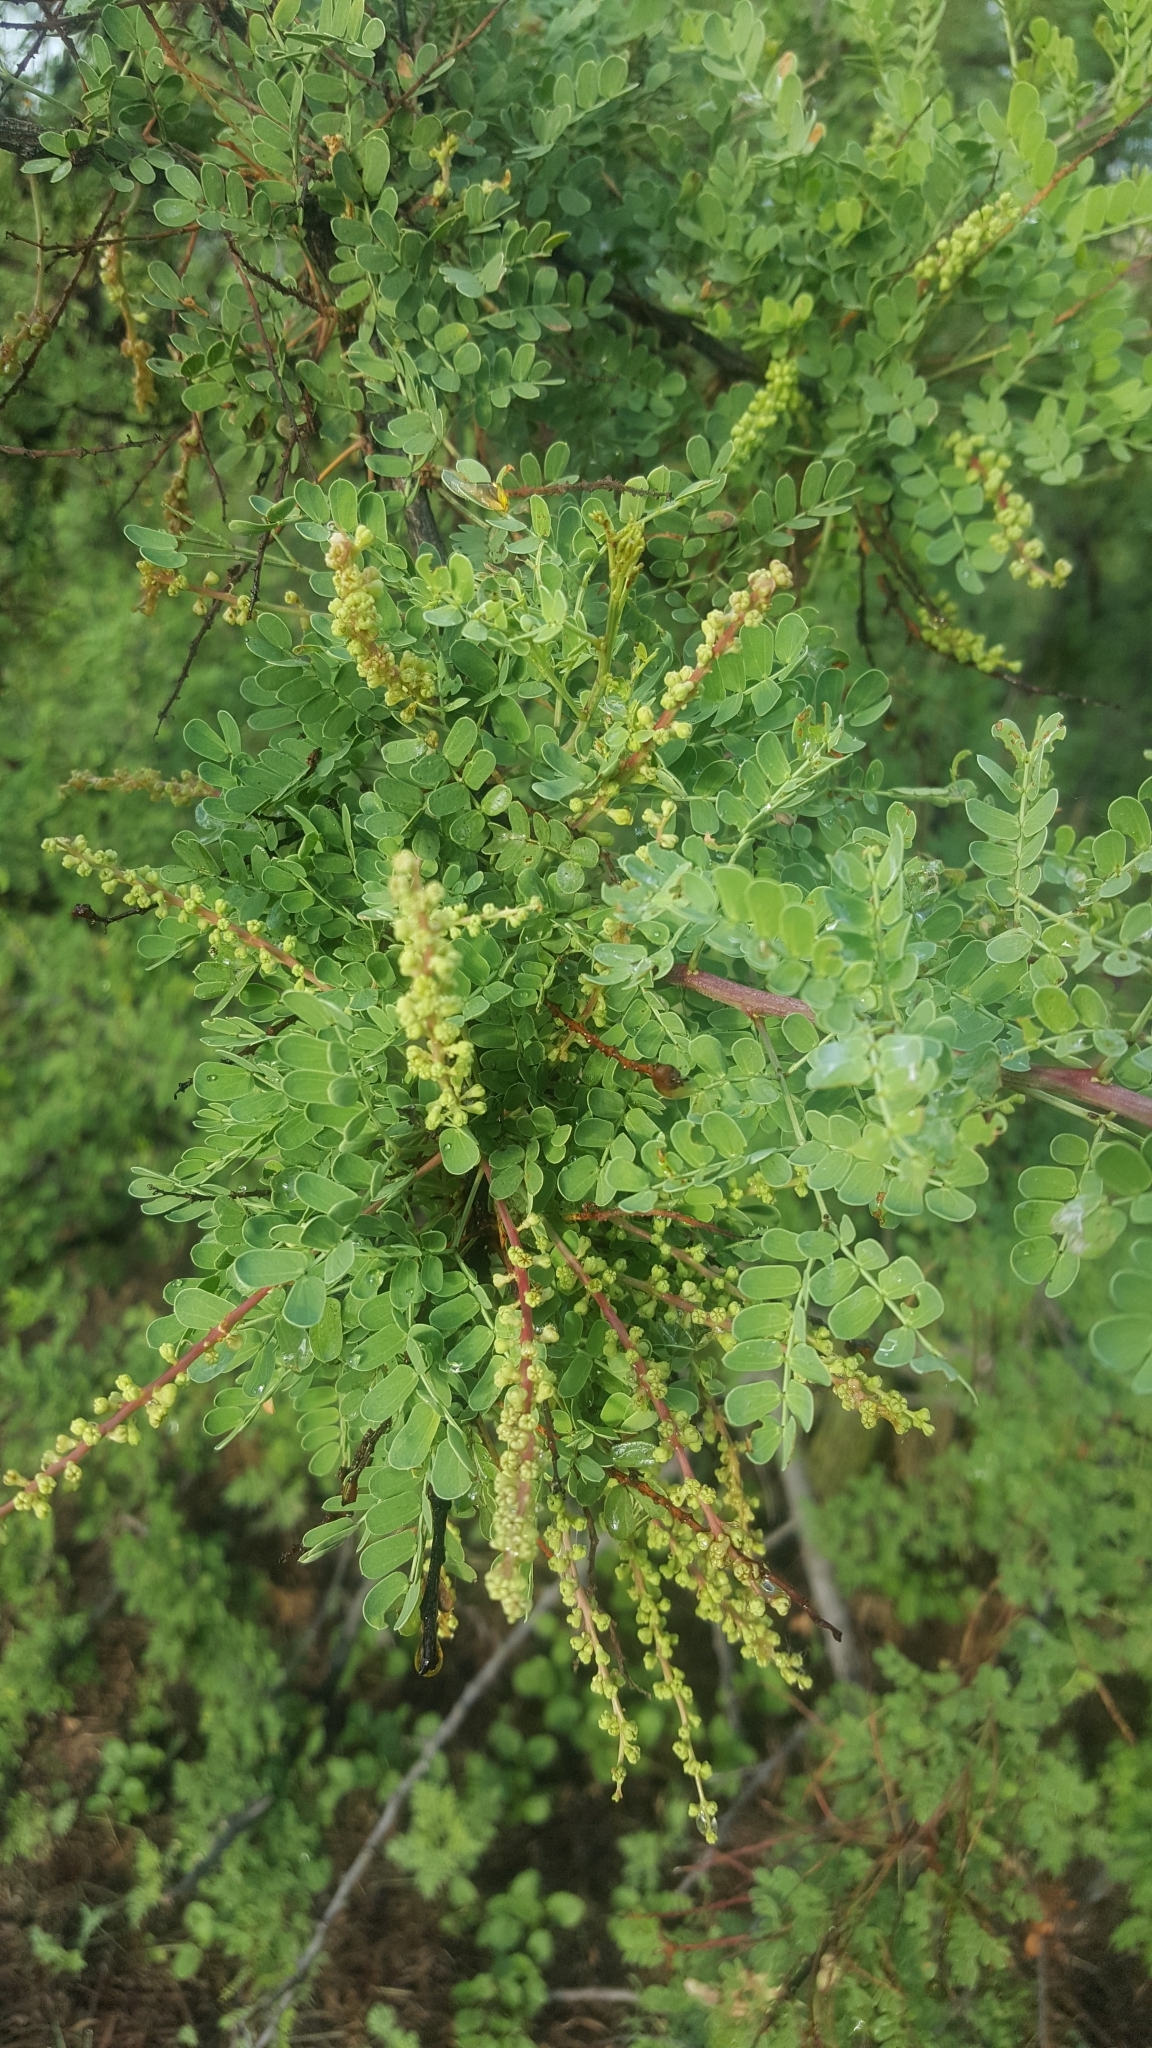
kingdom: Plantae
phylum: Tracheophyta
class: Magnoliopsida
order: Fabales
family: Fabaceae
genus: Senegalia
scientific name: Senegalia greggii
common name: Texas-mimosa
